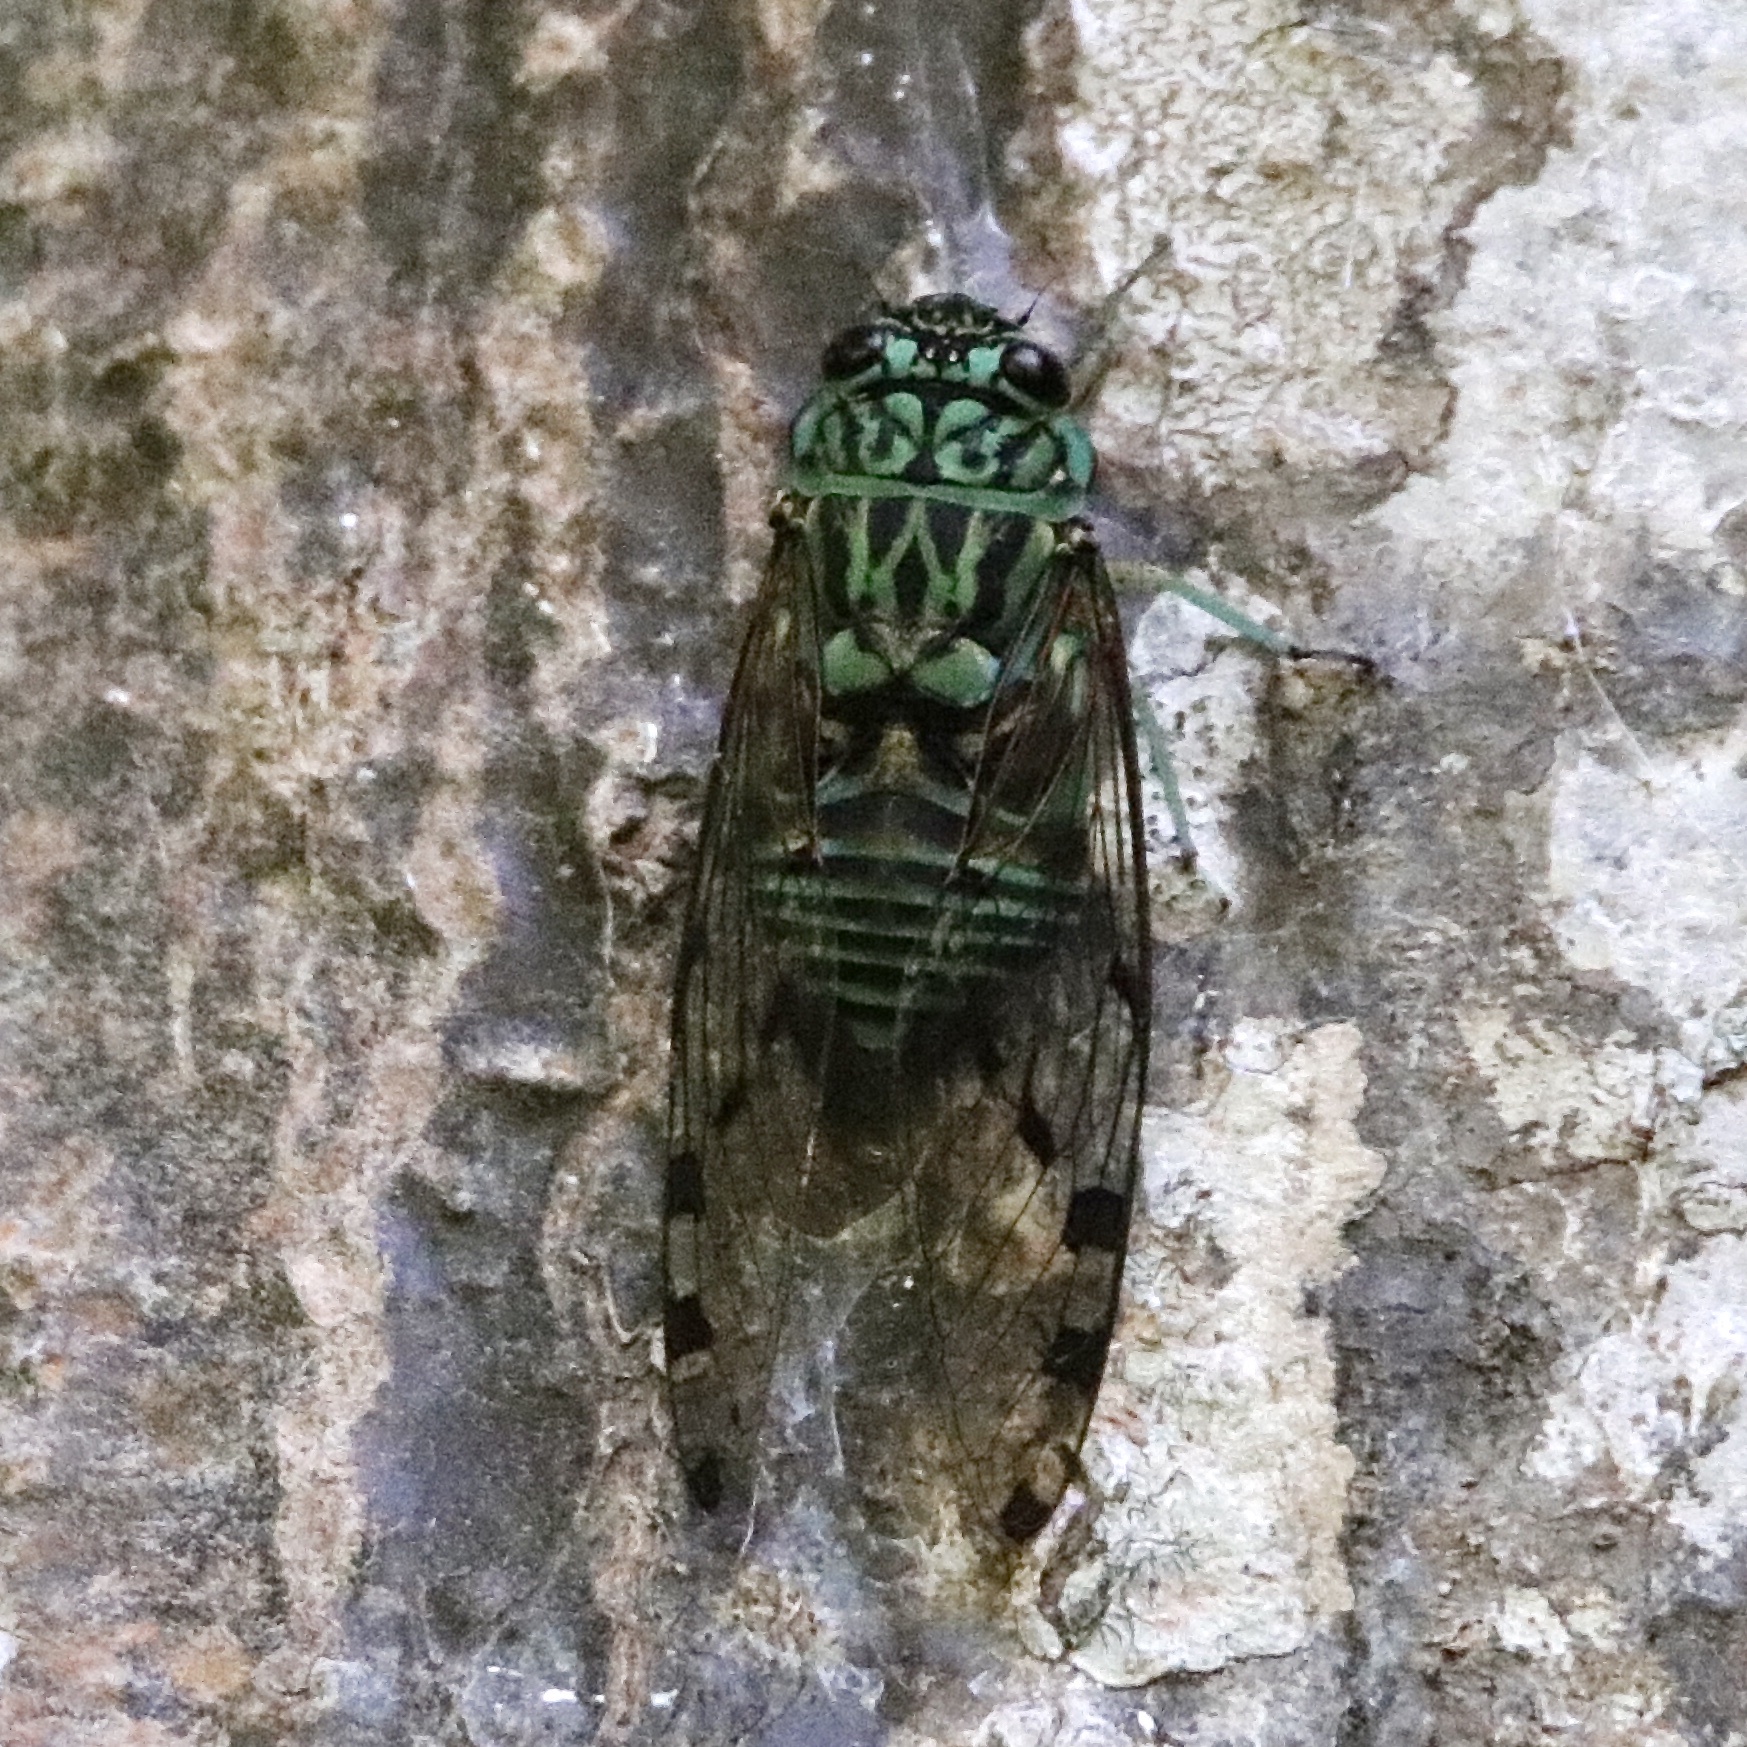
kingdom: Animalia
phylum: Arthropoda
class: Insecta
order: Hemiptera
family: Cicadidae
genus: Zammara
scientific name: Zammara smaragdula
